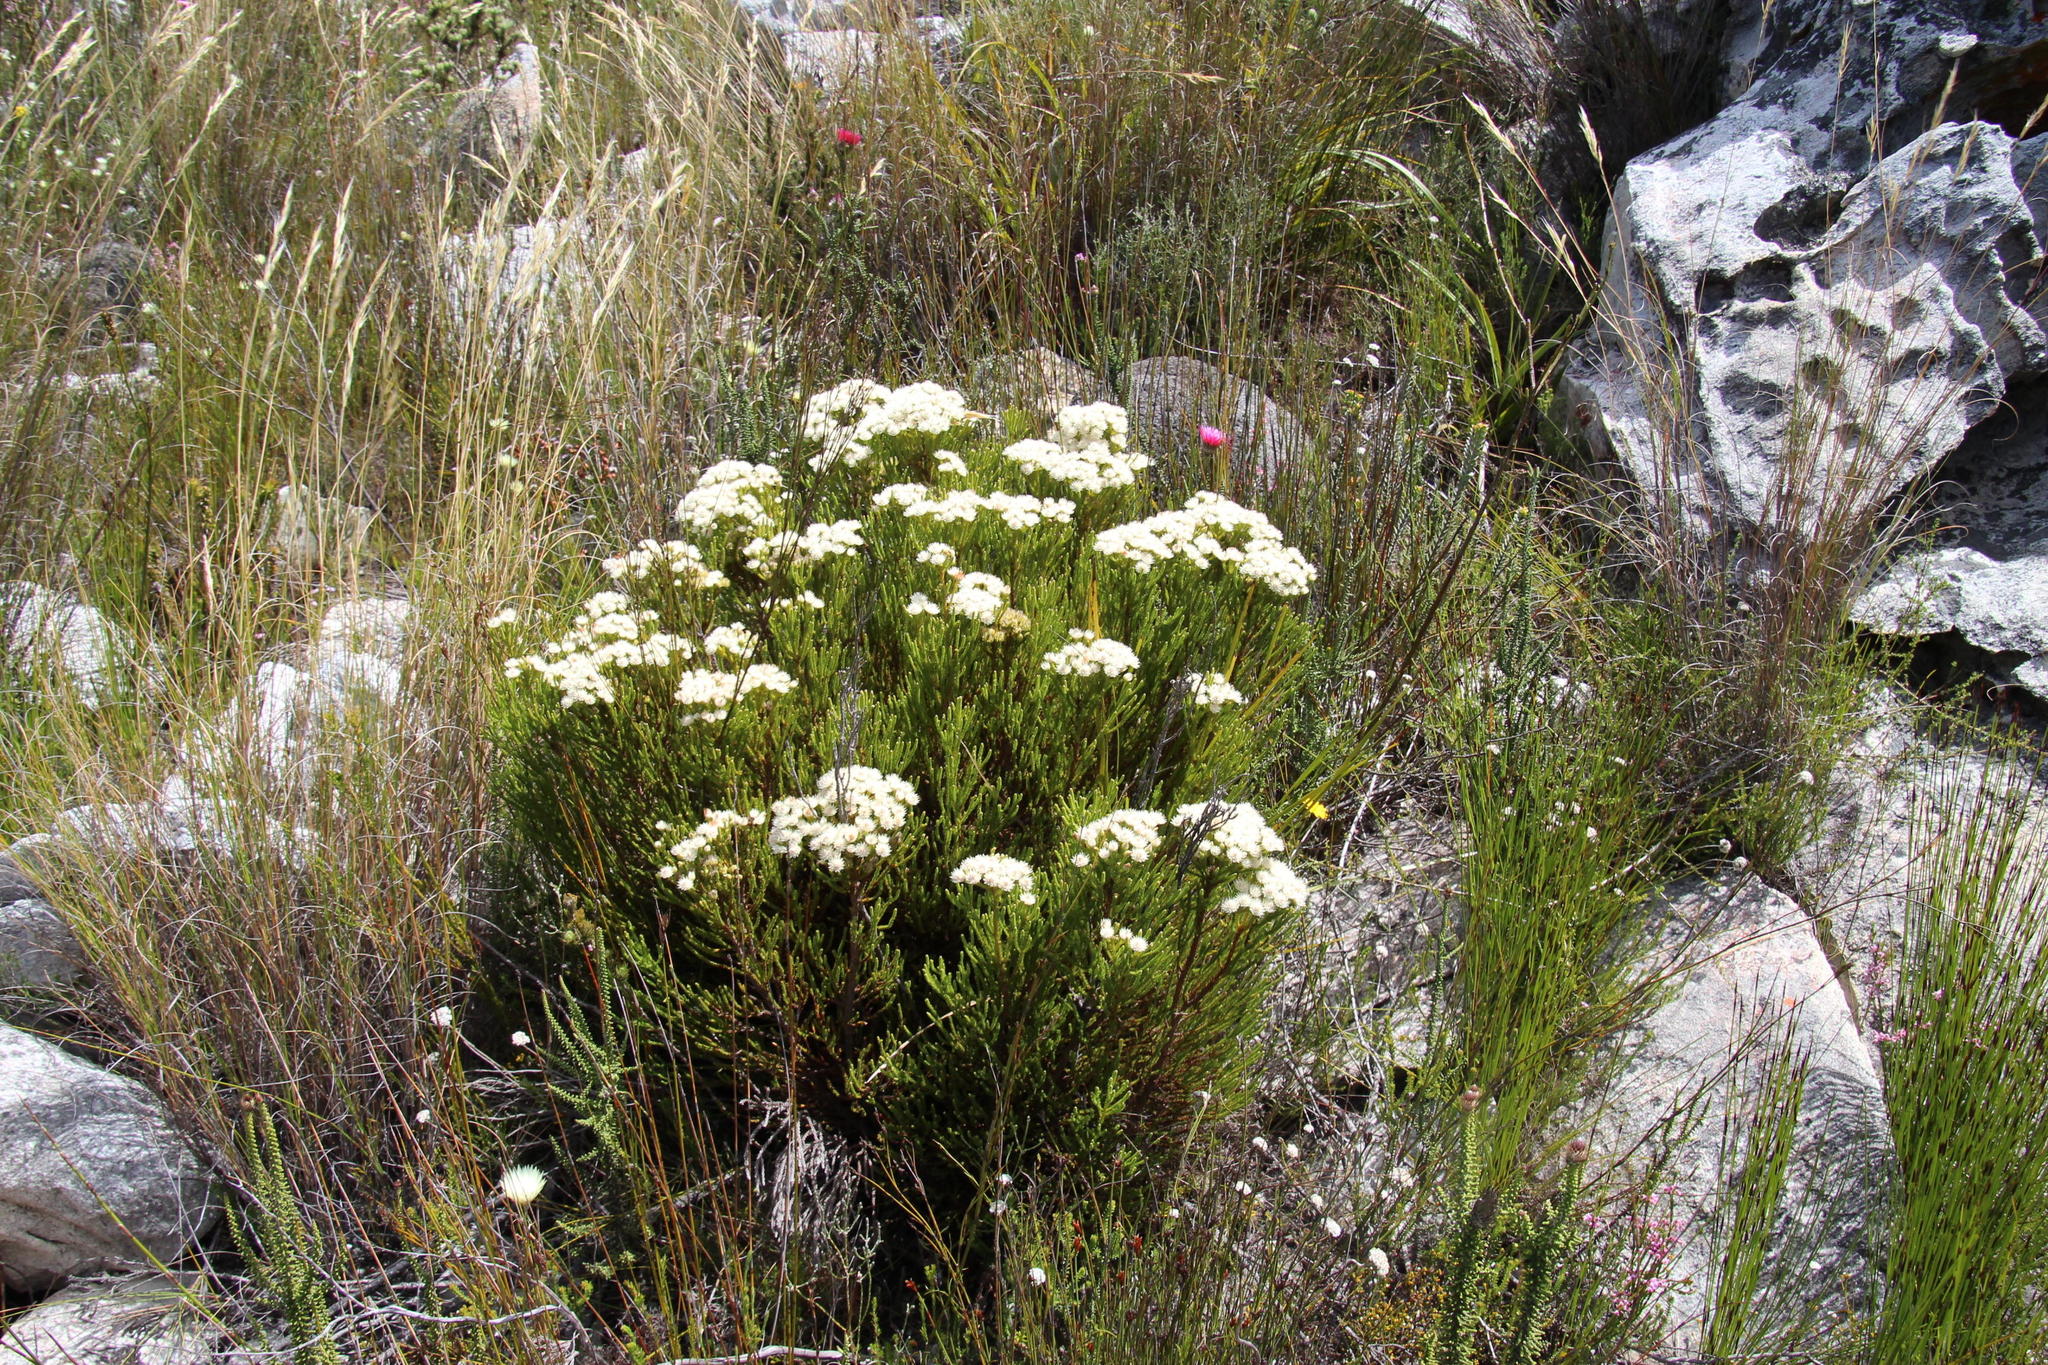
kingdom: Plantae
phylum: Tracheophyta
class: Magnoliopsida
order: Bruniales
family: Bruniaceae
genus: Brunia
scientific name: Brunia paleacea
